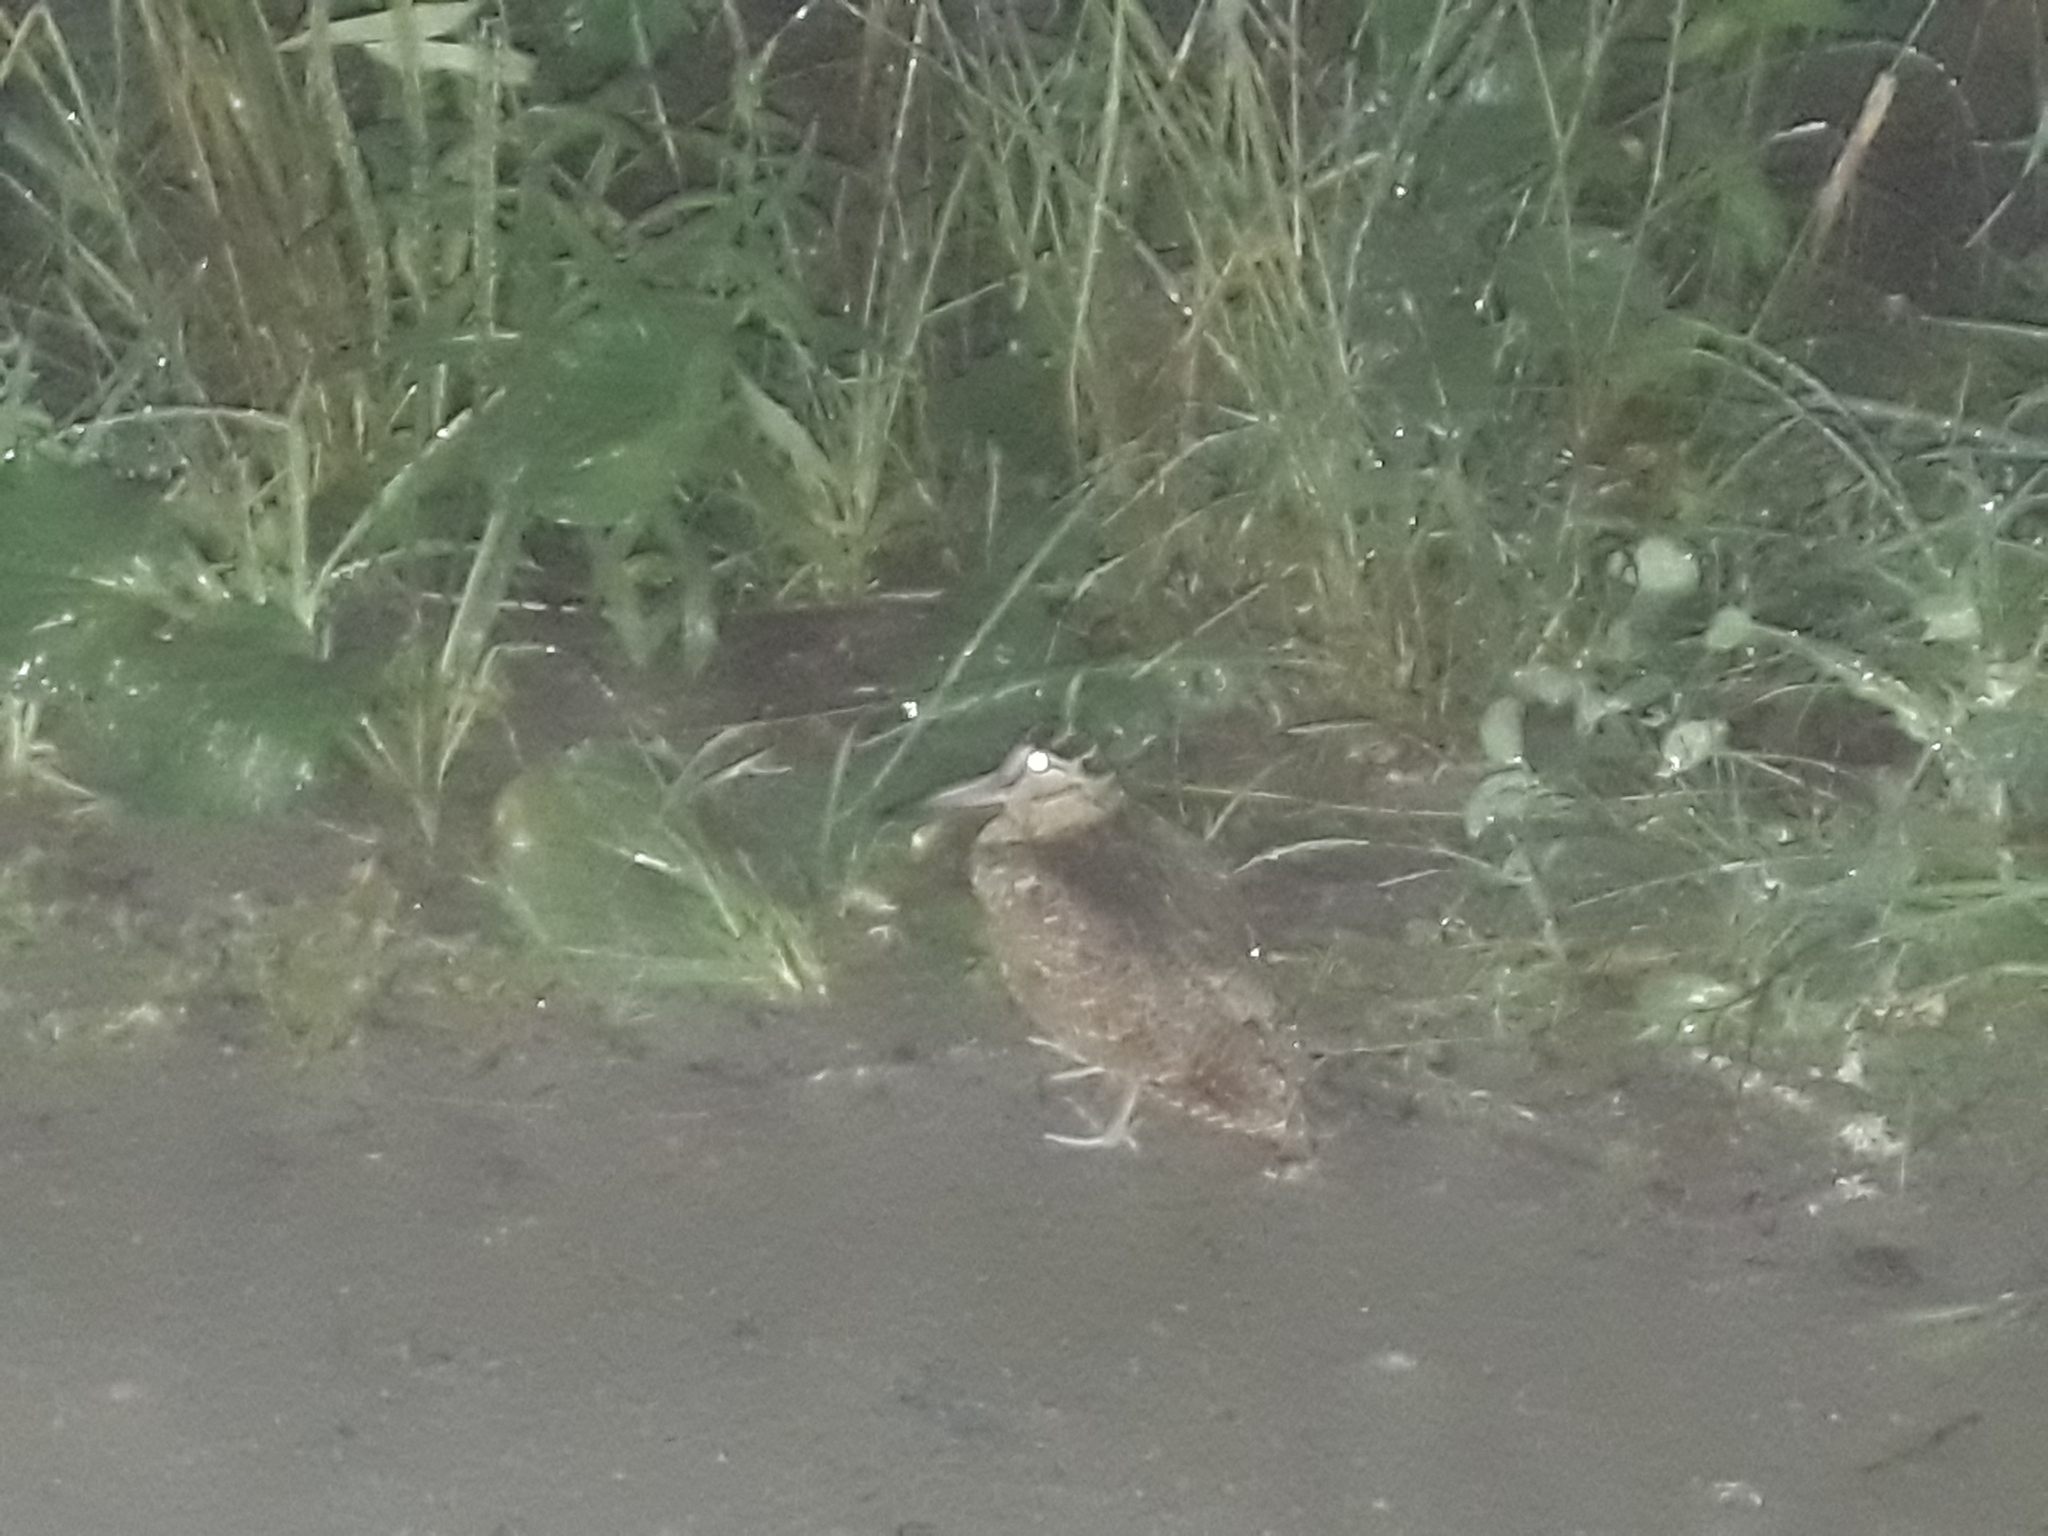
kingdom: Animalia
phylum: Chordata
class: Aves
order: Charadriiformes
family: Scolopacidae
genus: Scolopax
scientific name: Scolopax rusticola
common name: Eurasian woodcock
